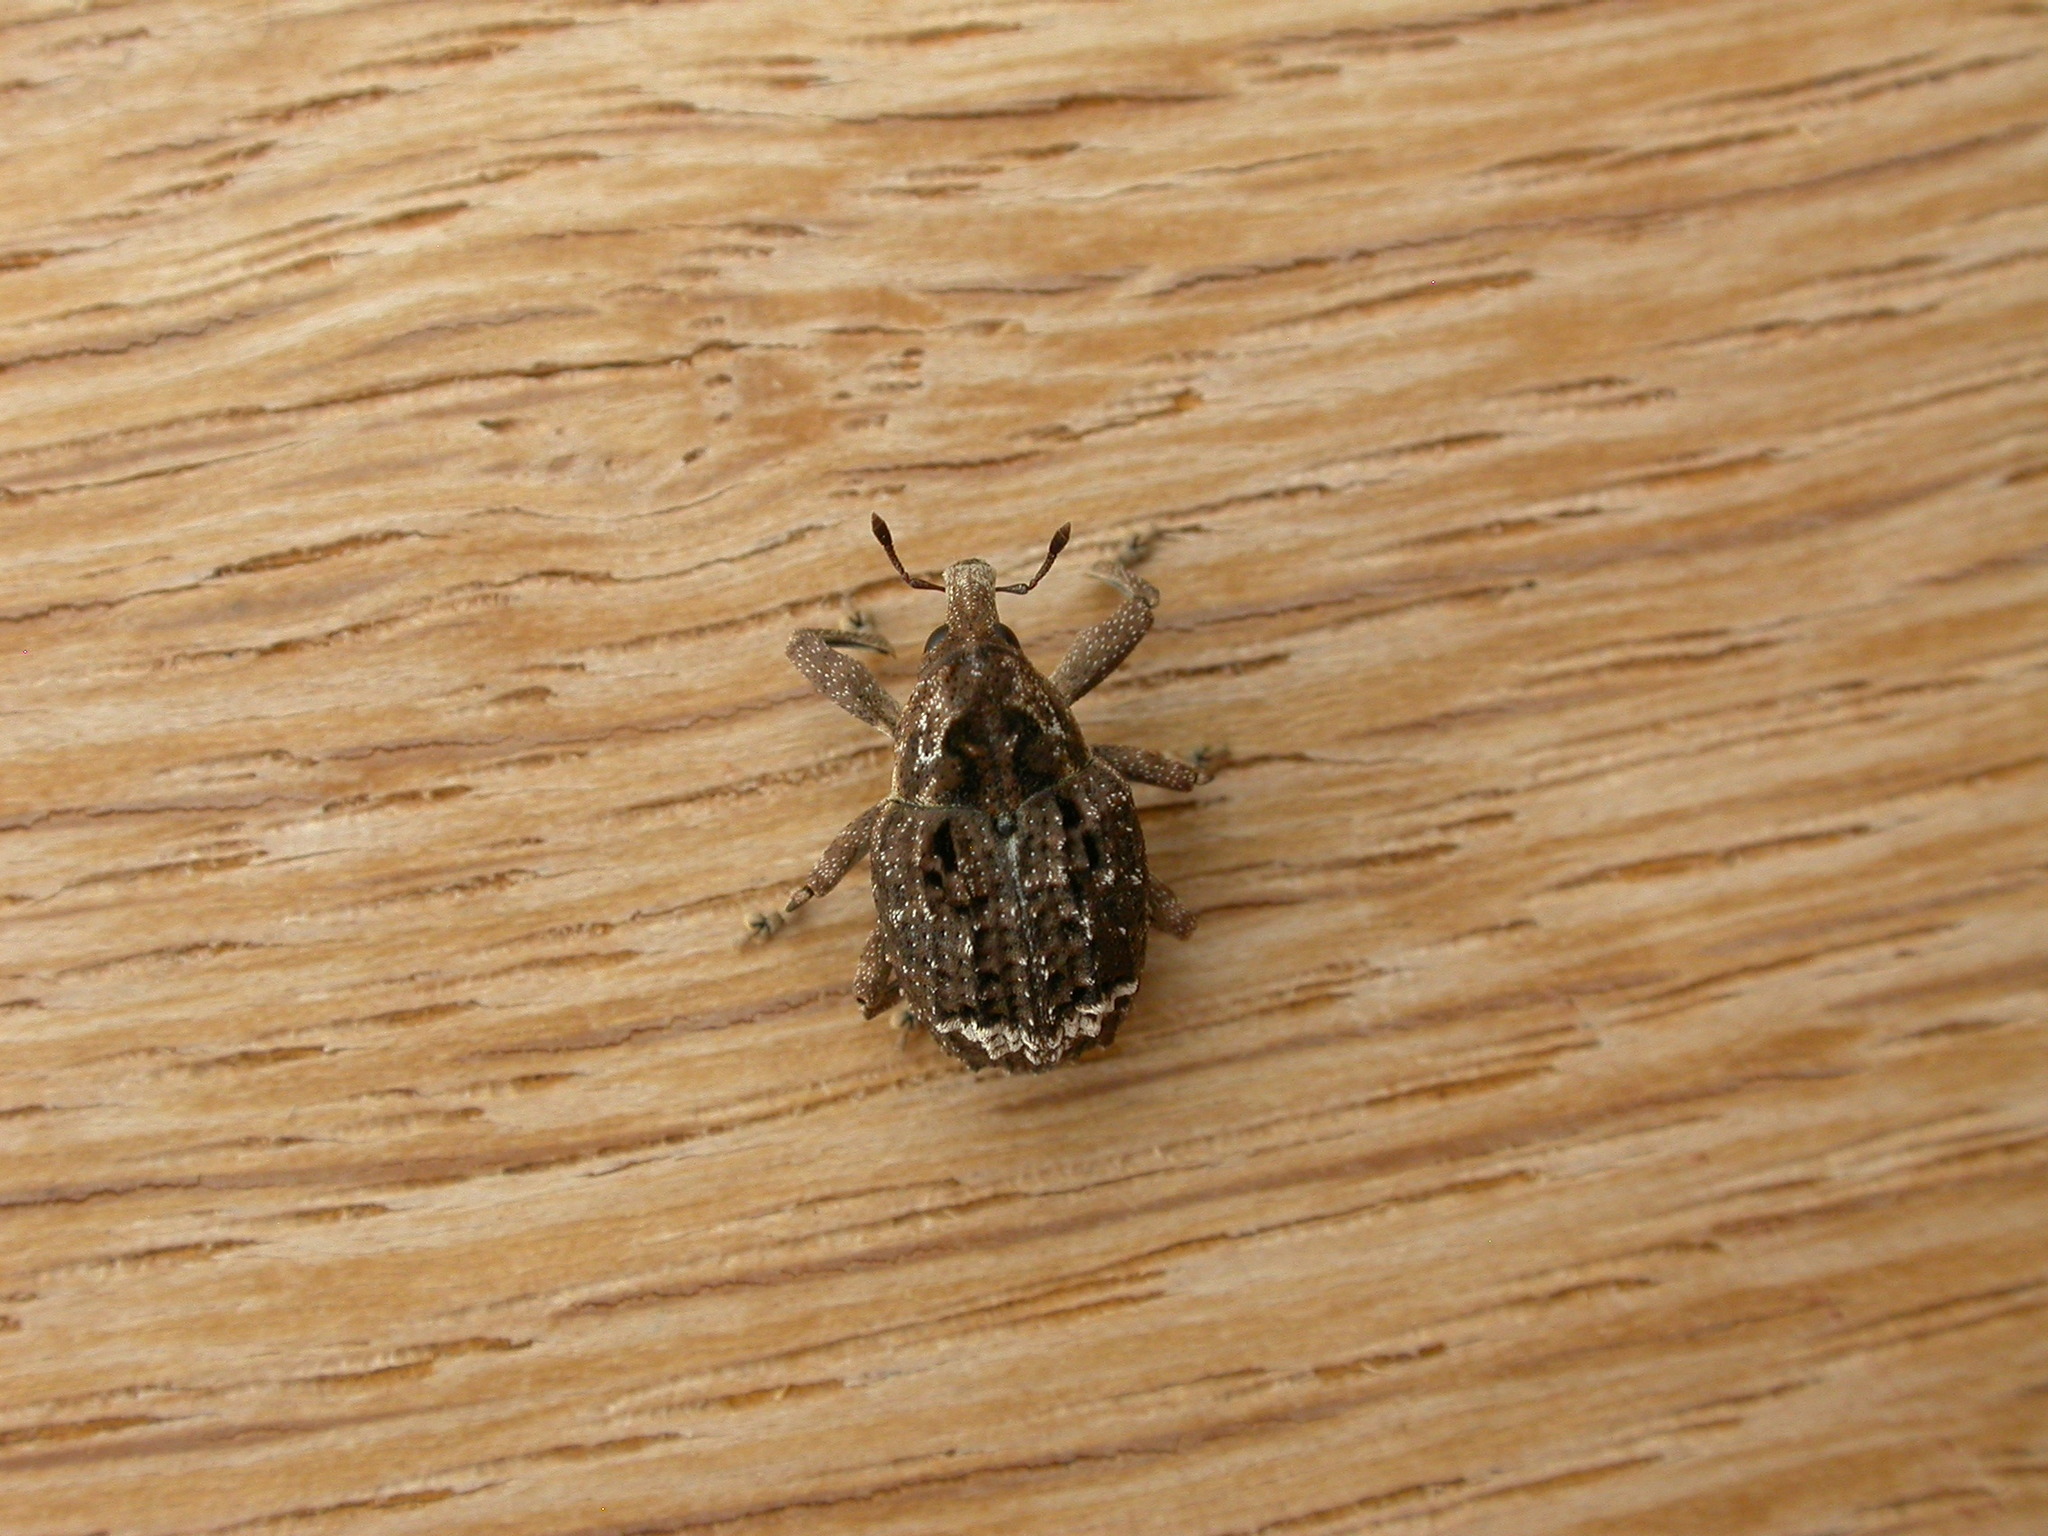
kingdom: Animalia
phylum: Arthropoda
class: Insecta
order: Coleoptera
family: Curculionidae
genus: Tepperia
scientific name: Tepperia sterculiae
